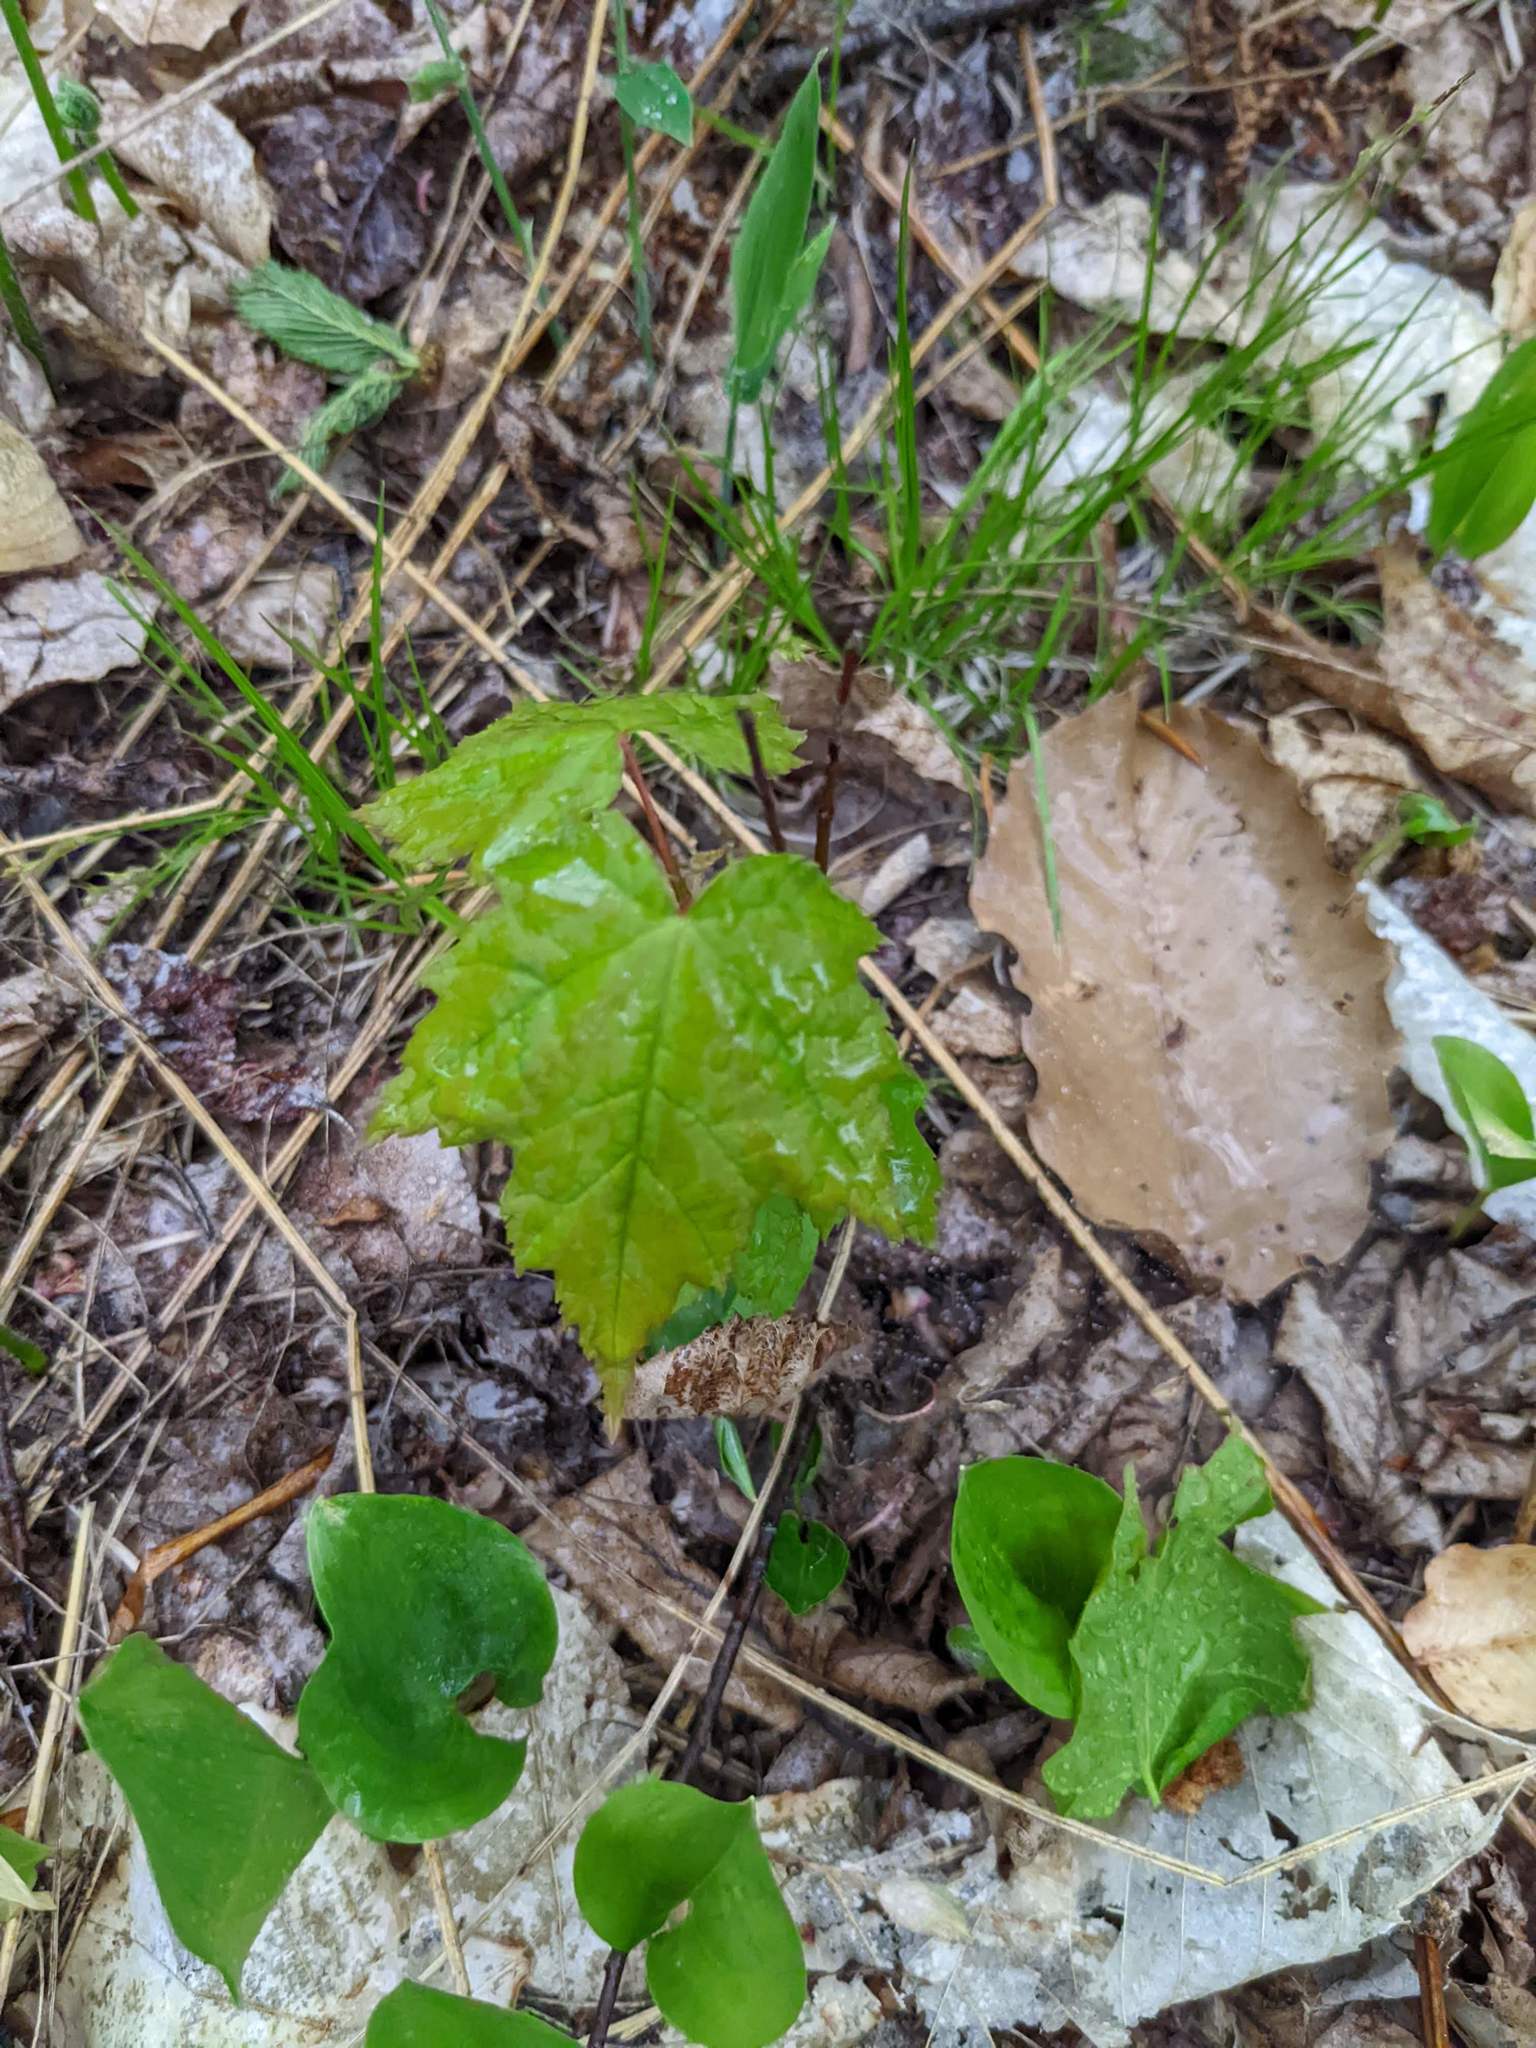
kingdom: Plantae
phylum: Tracheophyta
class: Magnoliopsida
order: Sapindales
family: Sapindaceae
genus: Acer
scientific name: Acer rubrum
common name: Red maple
